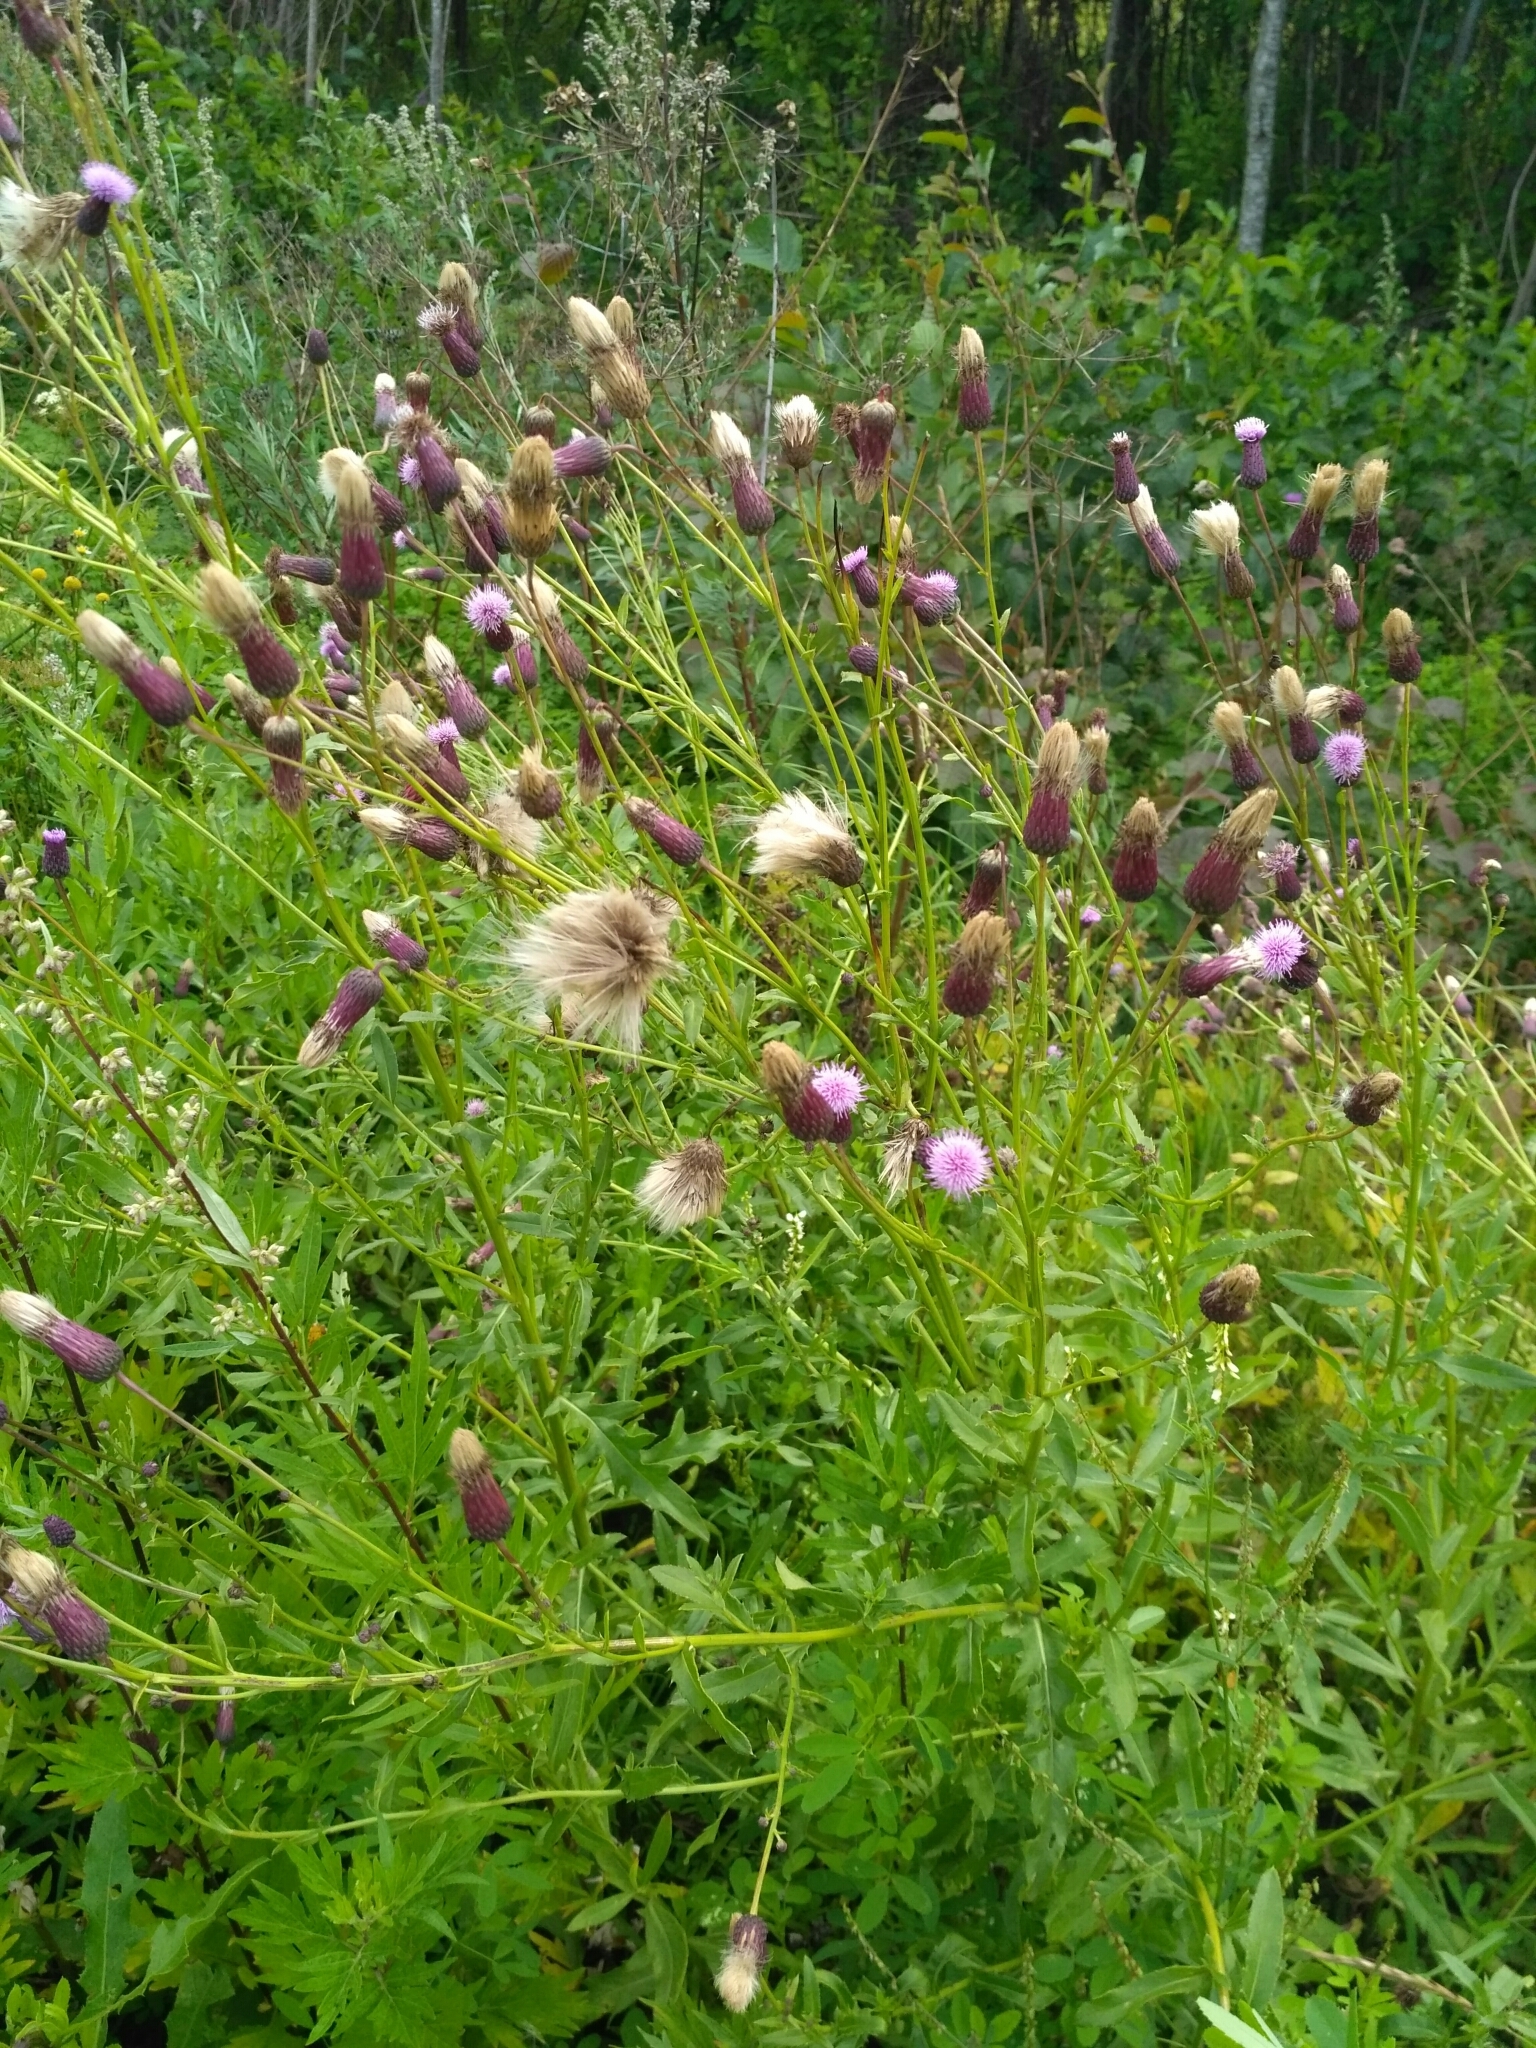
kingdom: Plantae
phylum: Tracheophyta
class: Magnoliopsida
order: Asterales
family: Asteraceae
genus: Cirsium
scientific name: Cirsium arvense
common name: Creeping thistle
